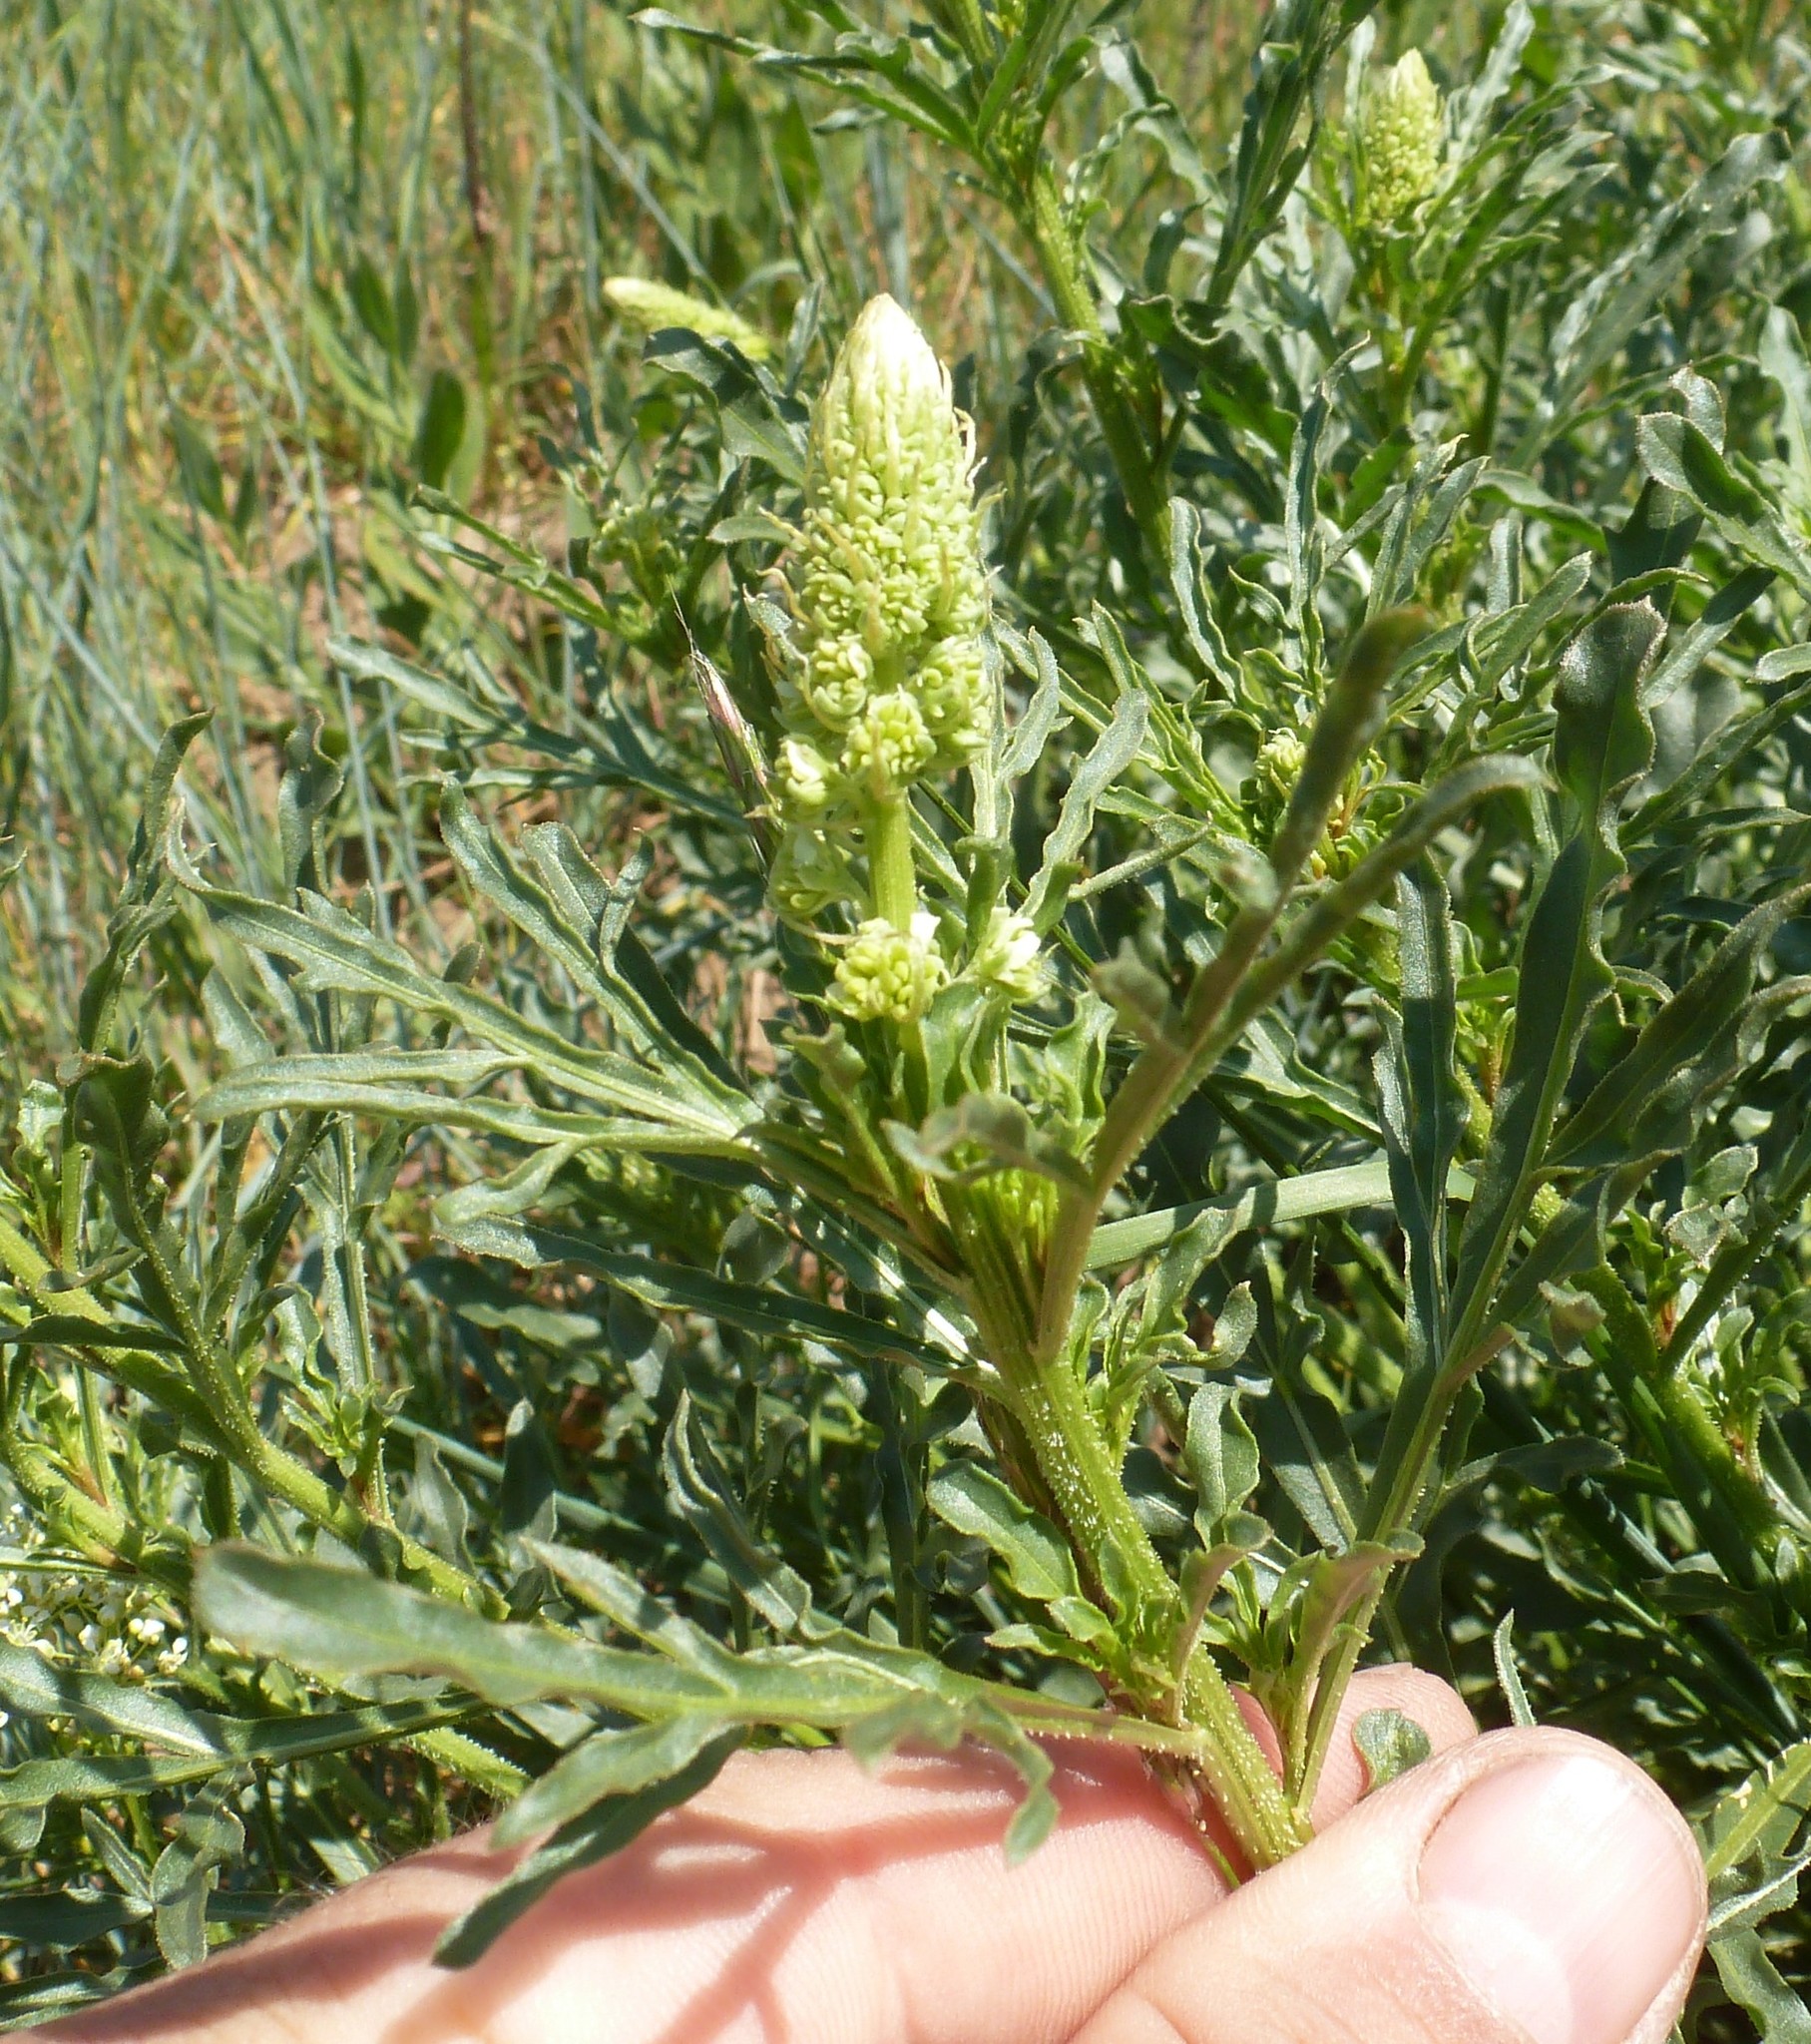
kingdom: Plantae
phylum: Tracheophyta
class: Magnoliopsida
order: Brassicales
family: Resedaceae
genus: Reseda
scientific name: Reseda lutea
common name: Wild mignonette
